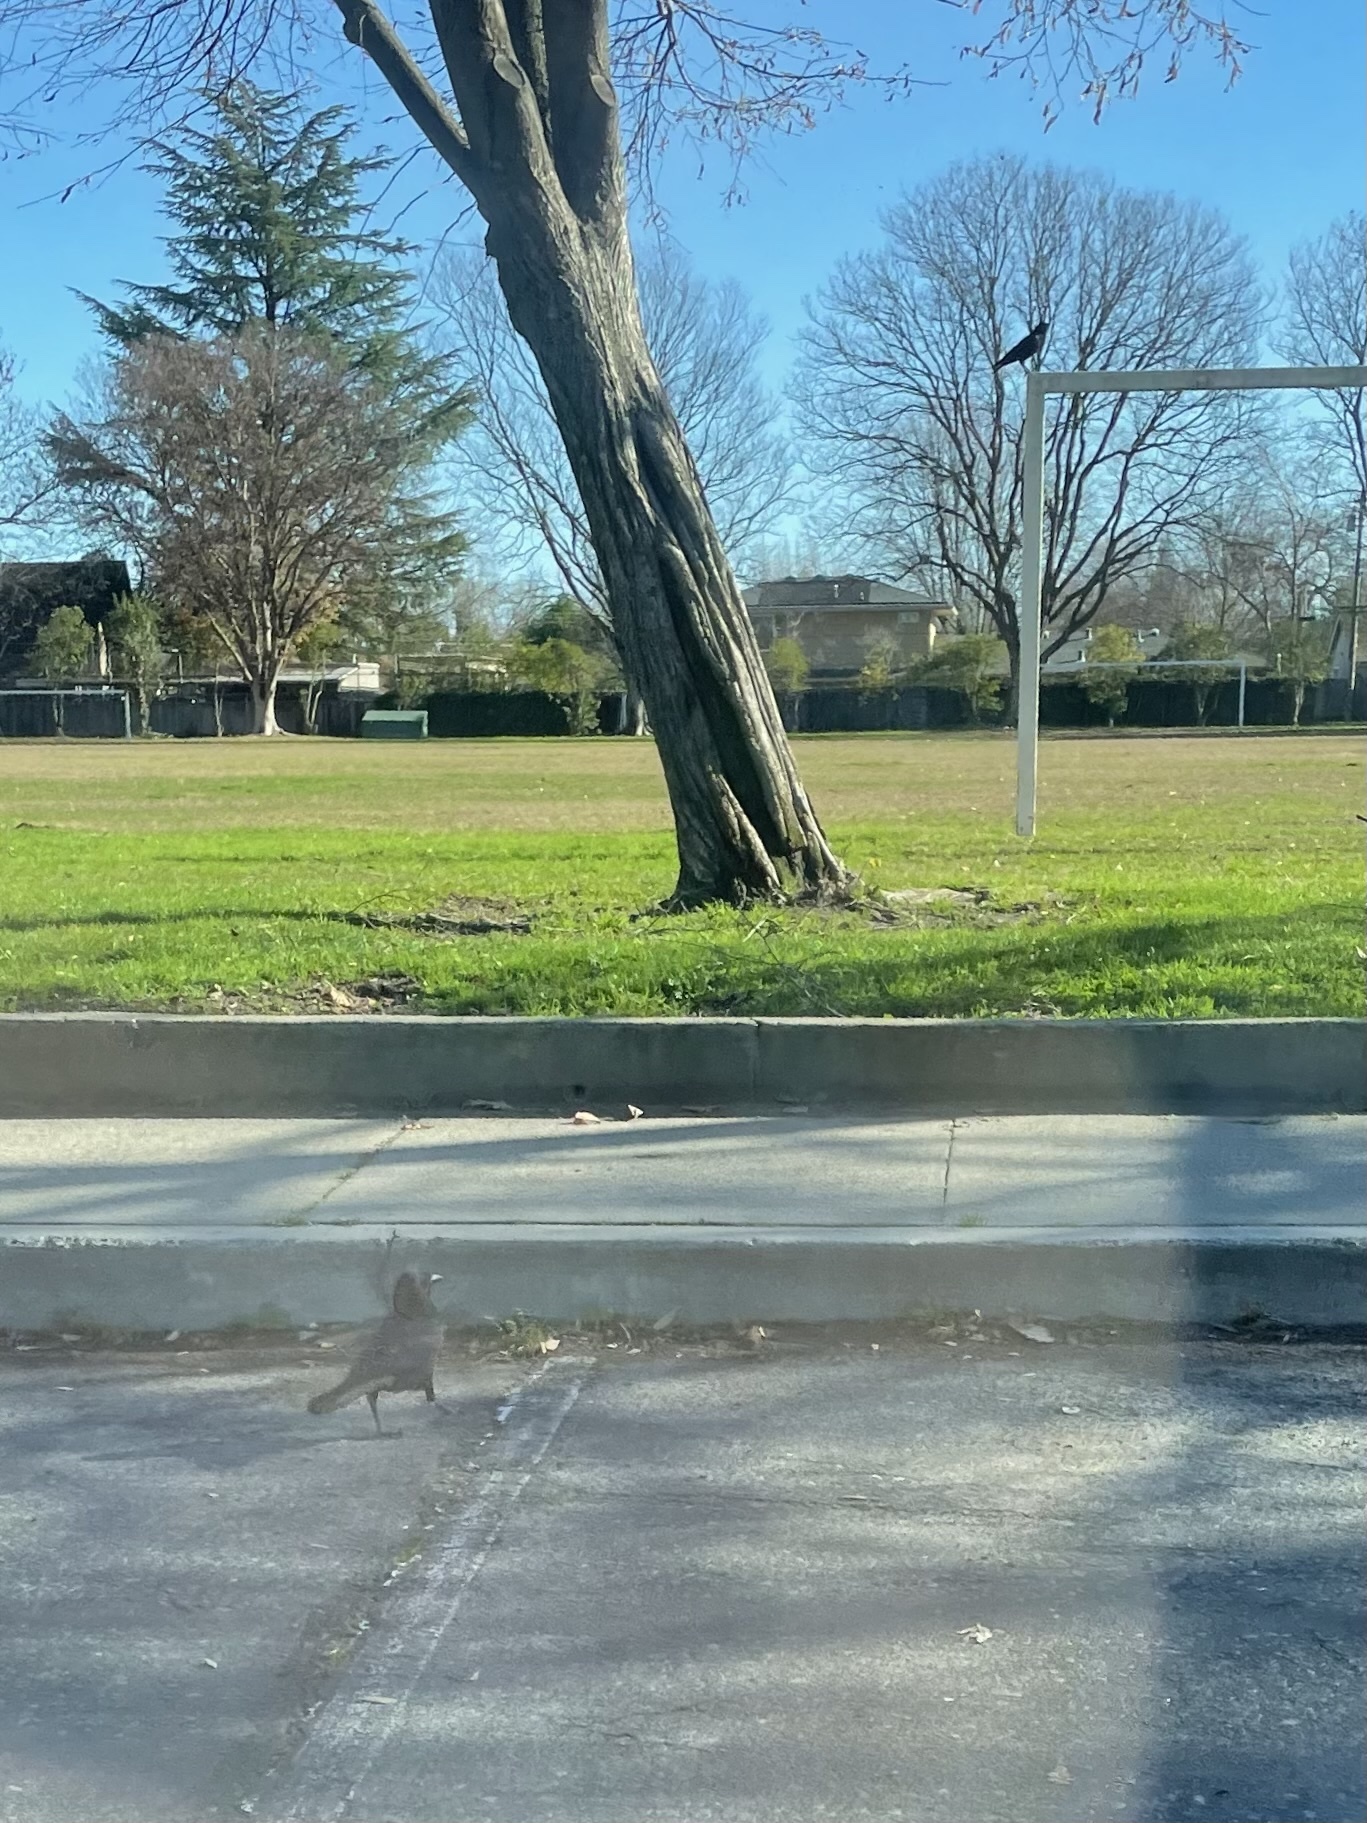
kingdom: Animalia
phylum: Chordata
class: Aves
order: Passeriformes
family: Corvidae
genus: Corvus
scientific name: Corvus brachyrhynchos
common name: American crow
